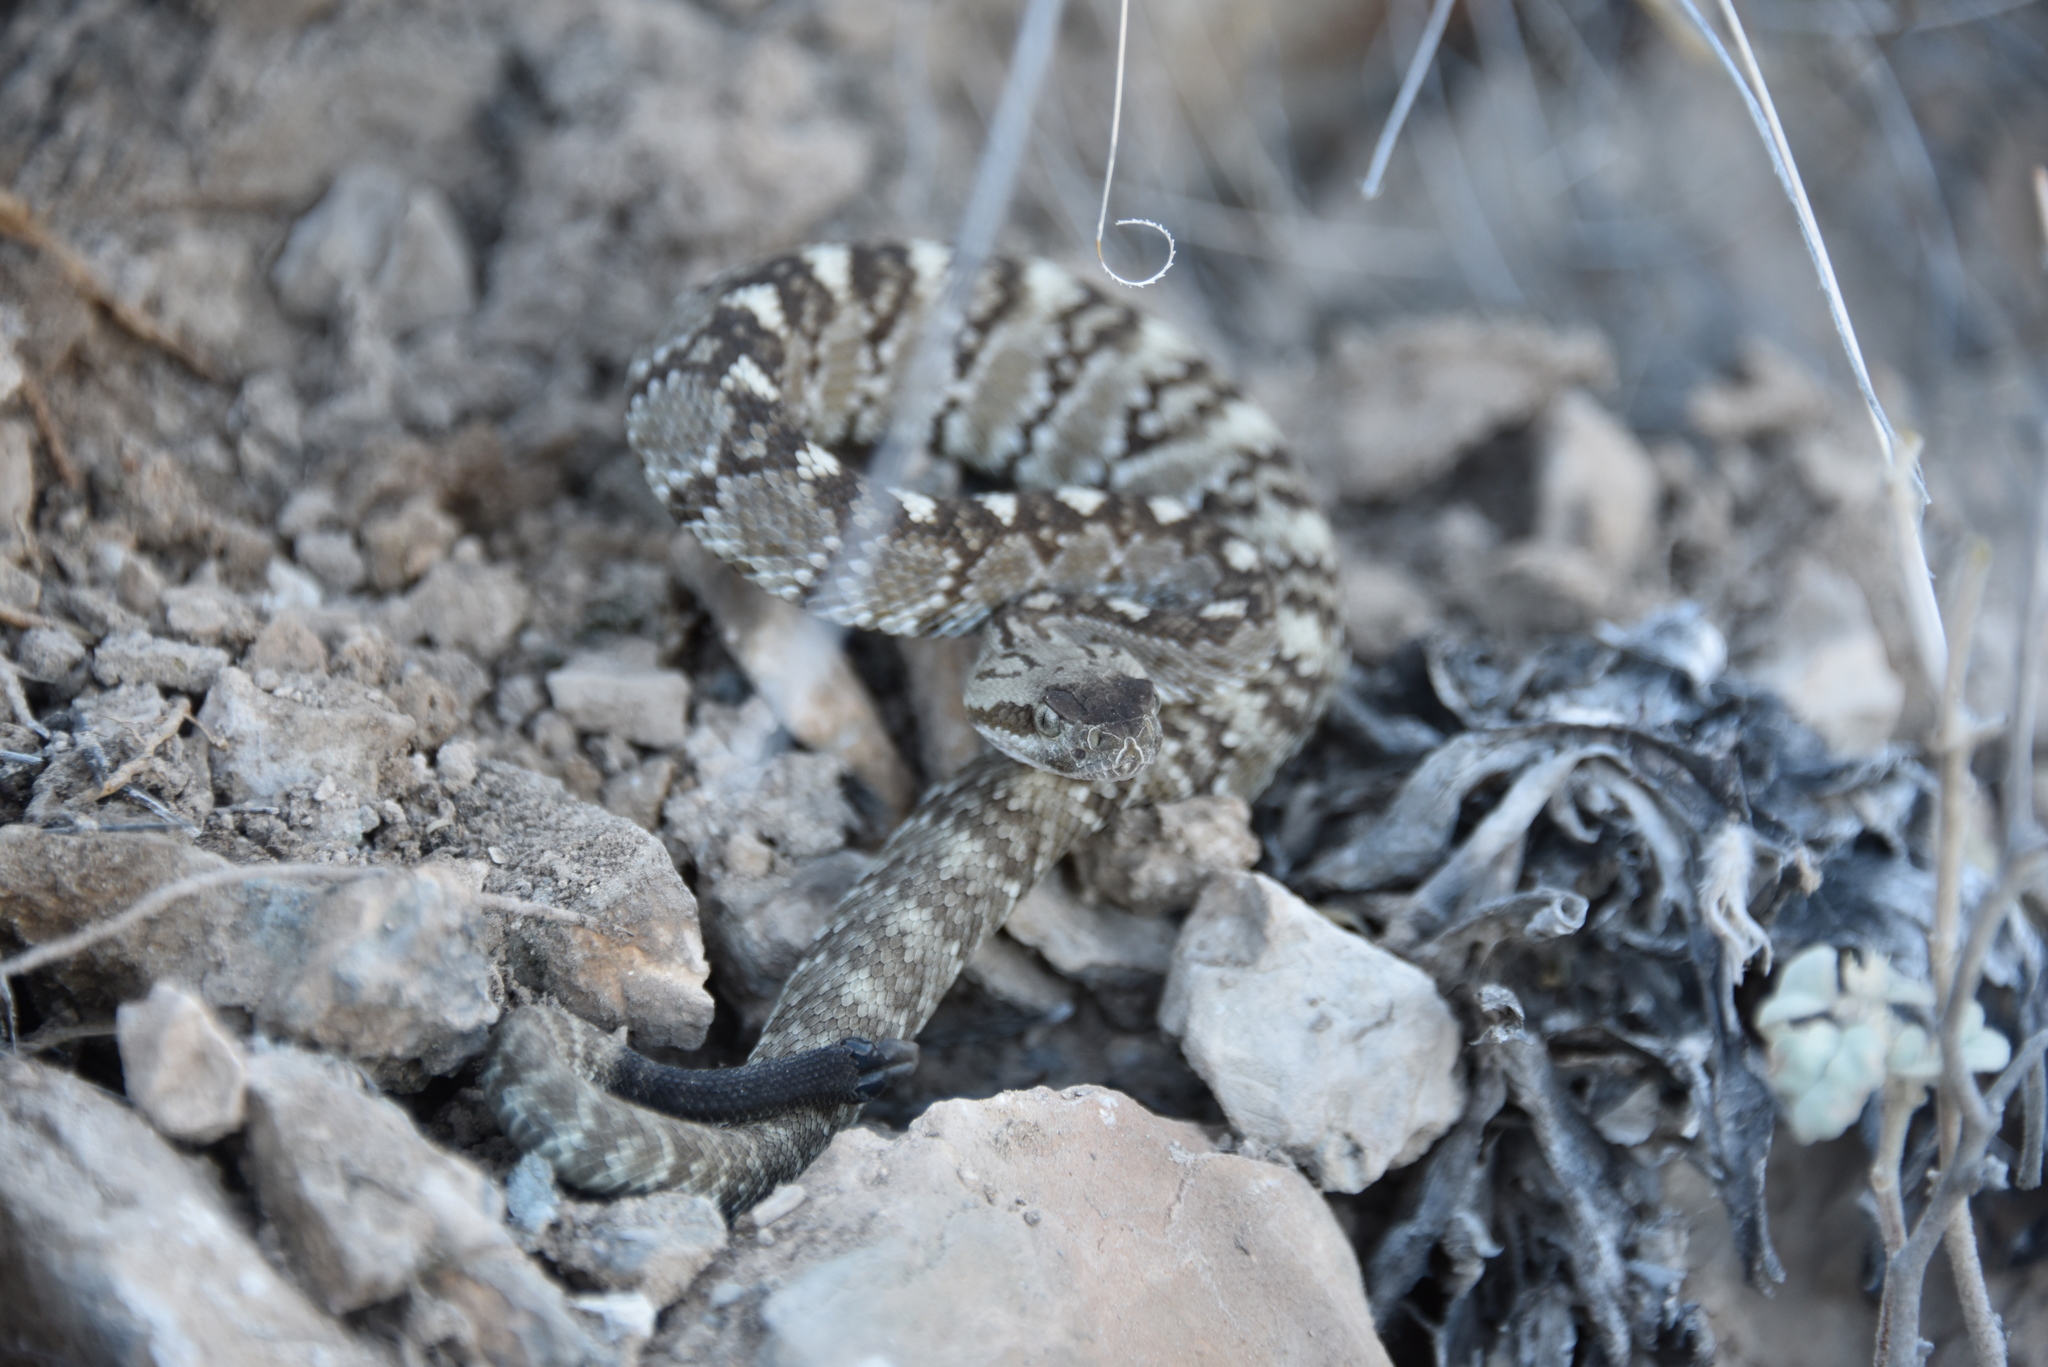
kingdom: Animalia
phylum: Chordata
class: Squamata
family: Viperidae
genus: Crotalus
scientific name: Crotalus ornatus
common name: Black-tailed rattlesnake
